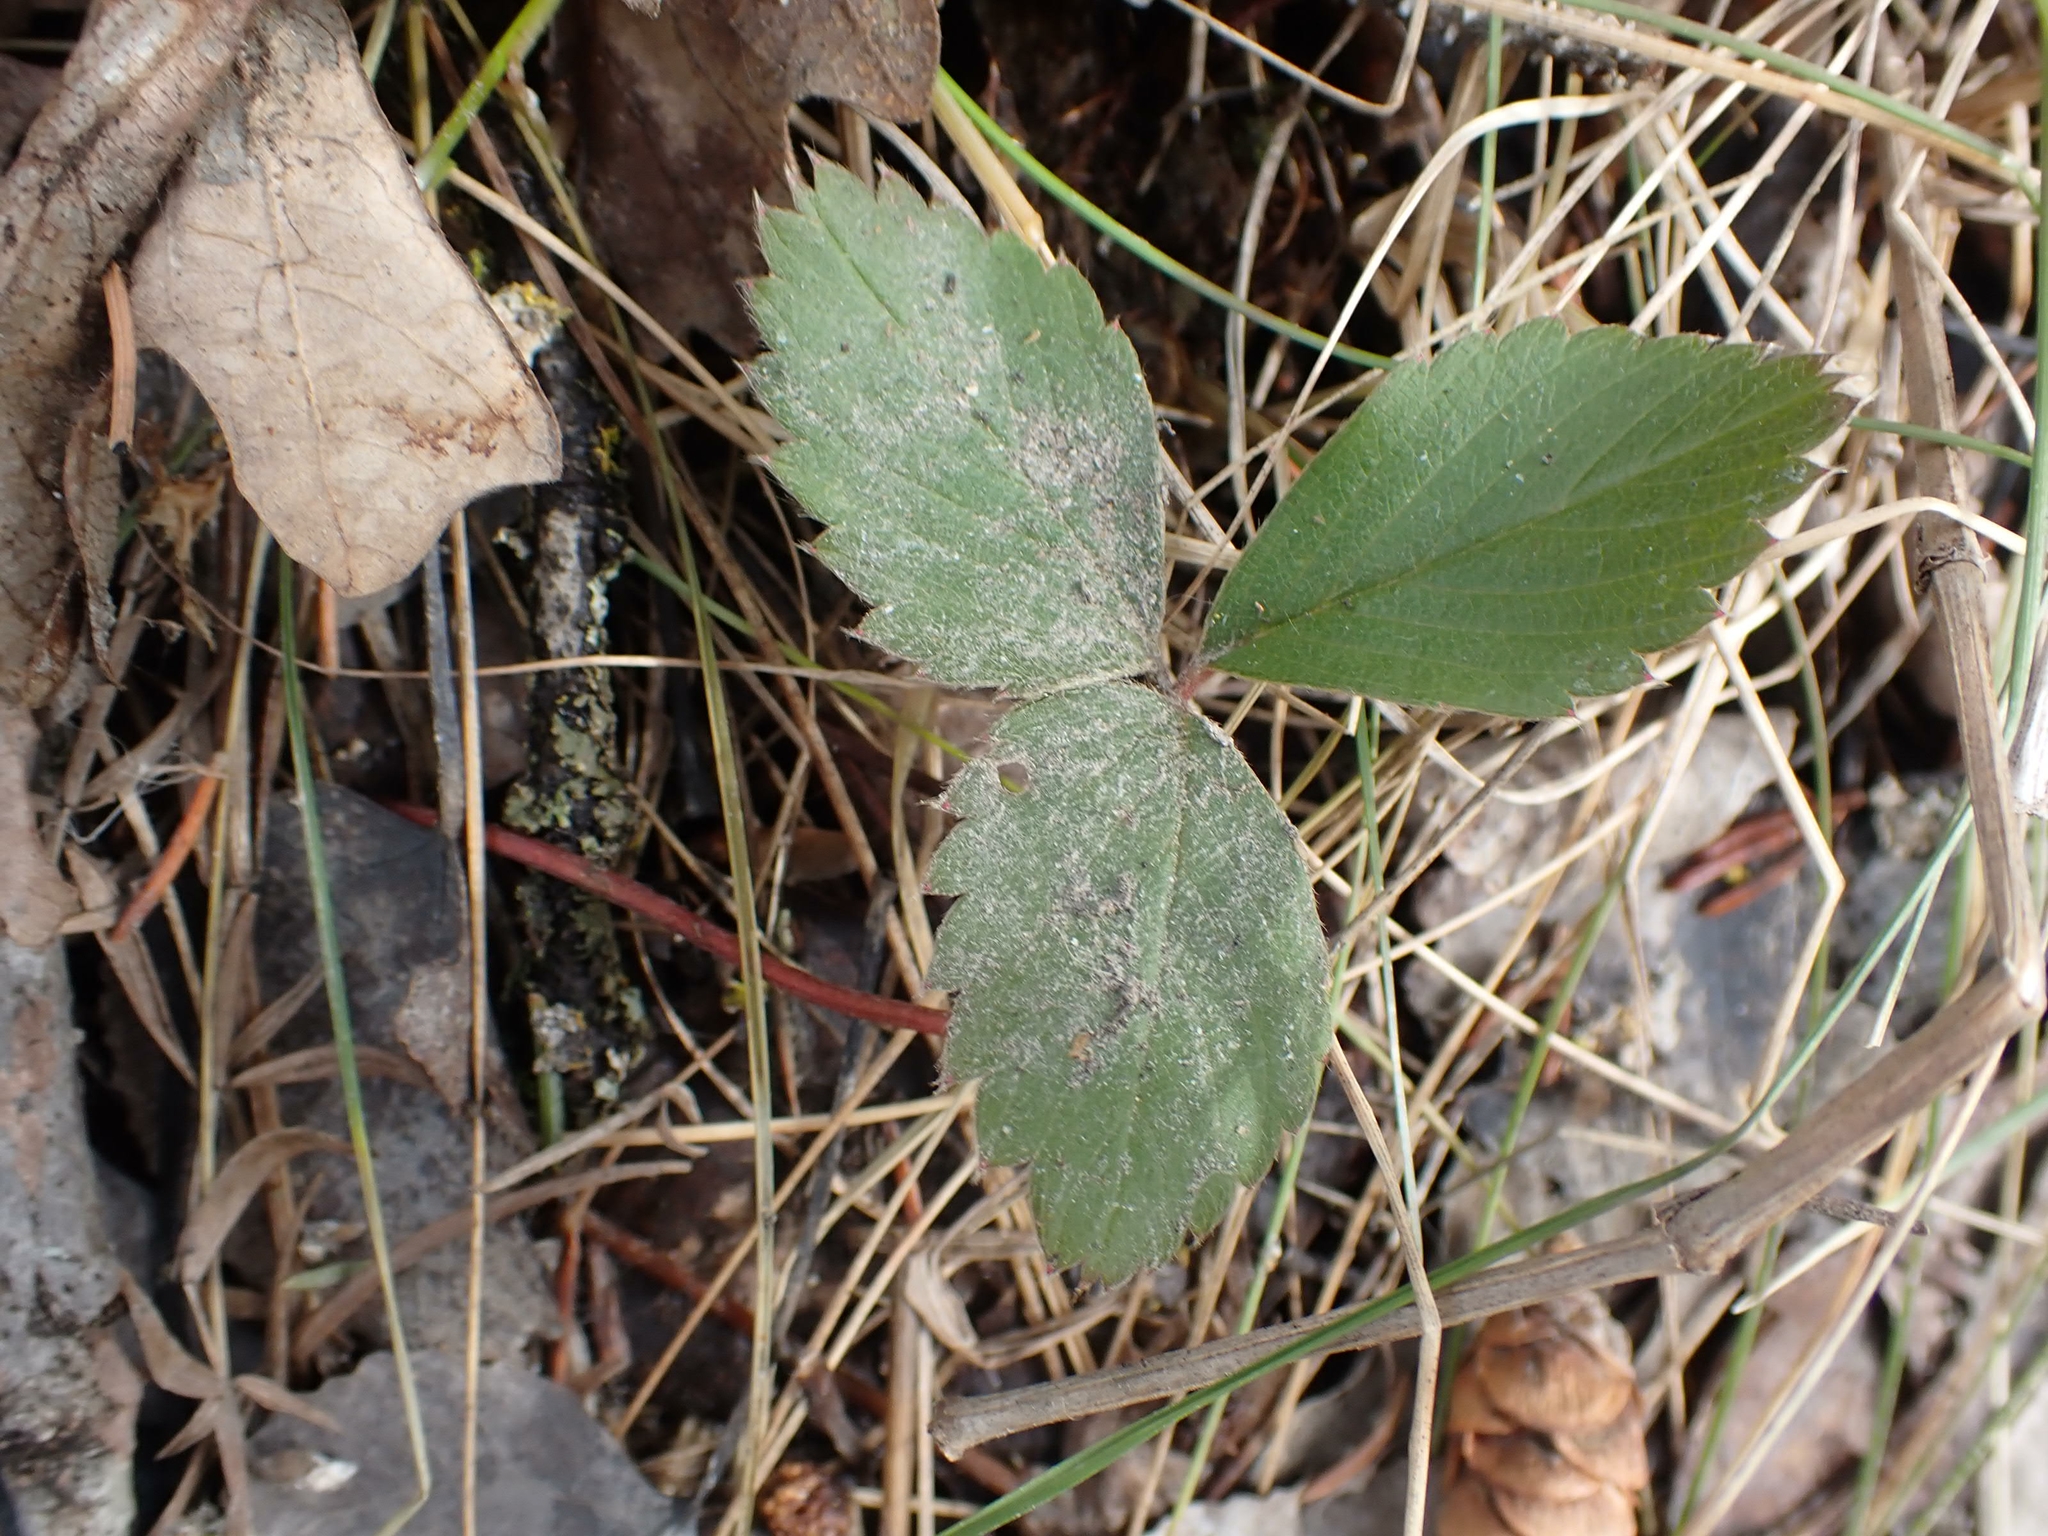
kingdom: Plantae
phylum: Tracheophyta
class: Magnoliopsida
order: Rosales
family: Rosaceae
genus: Fragaria
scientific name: Fragaria virginiana
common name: Thickleaved wild strawberry
